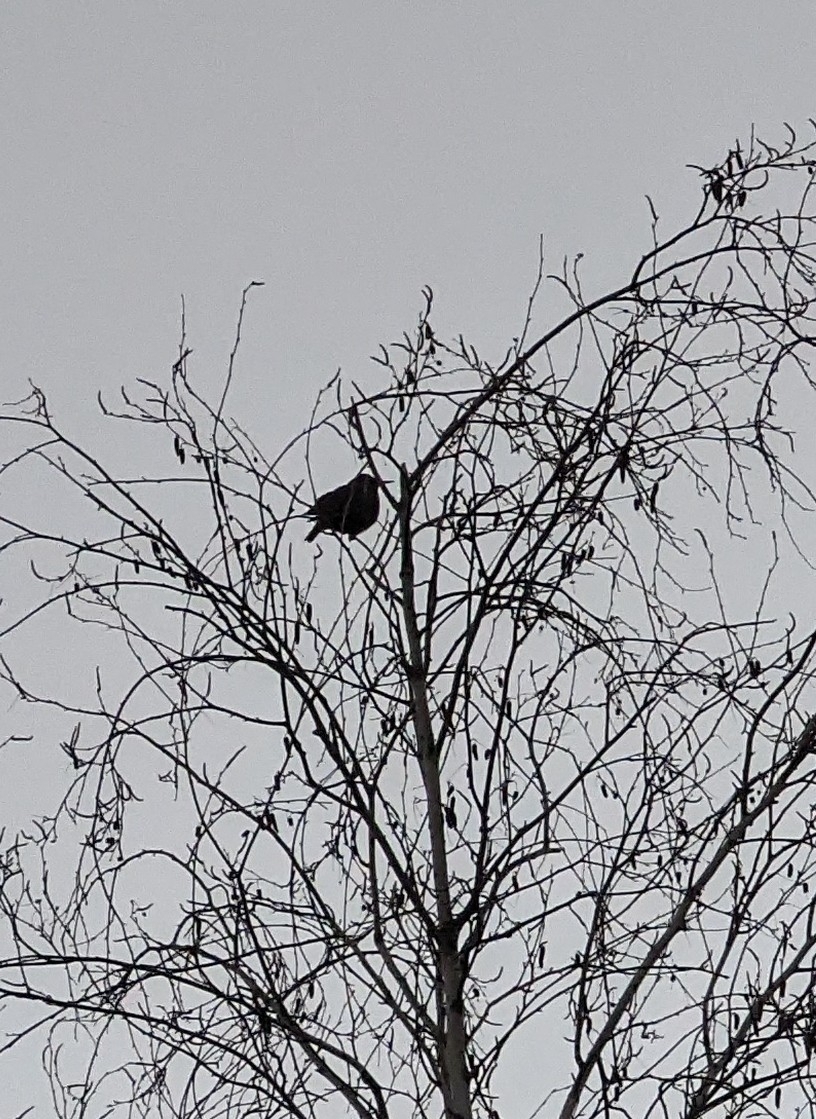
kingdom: Animalia
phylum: Chordata
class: Aves
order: Passeriformes
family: Sturnidae
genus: Sturnus
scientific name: Sturnus vulgaris
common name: Common starling
